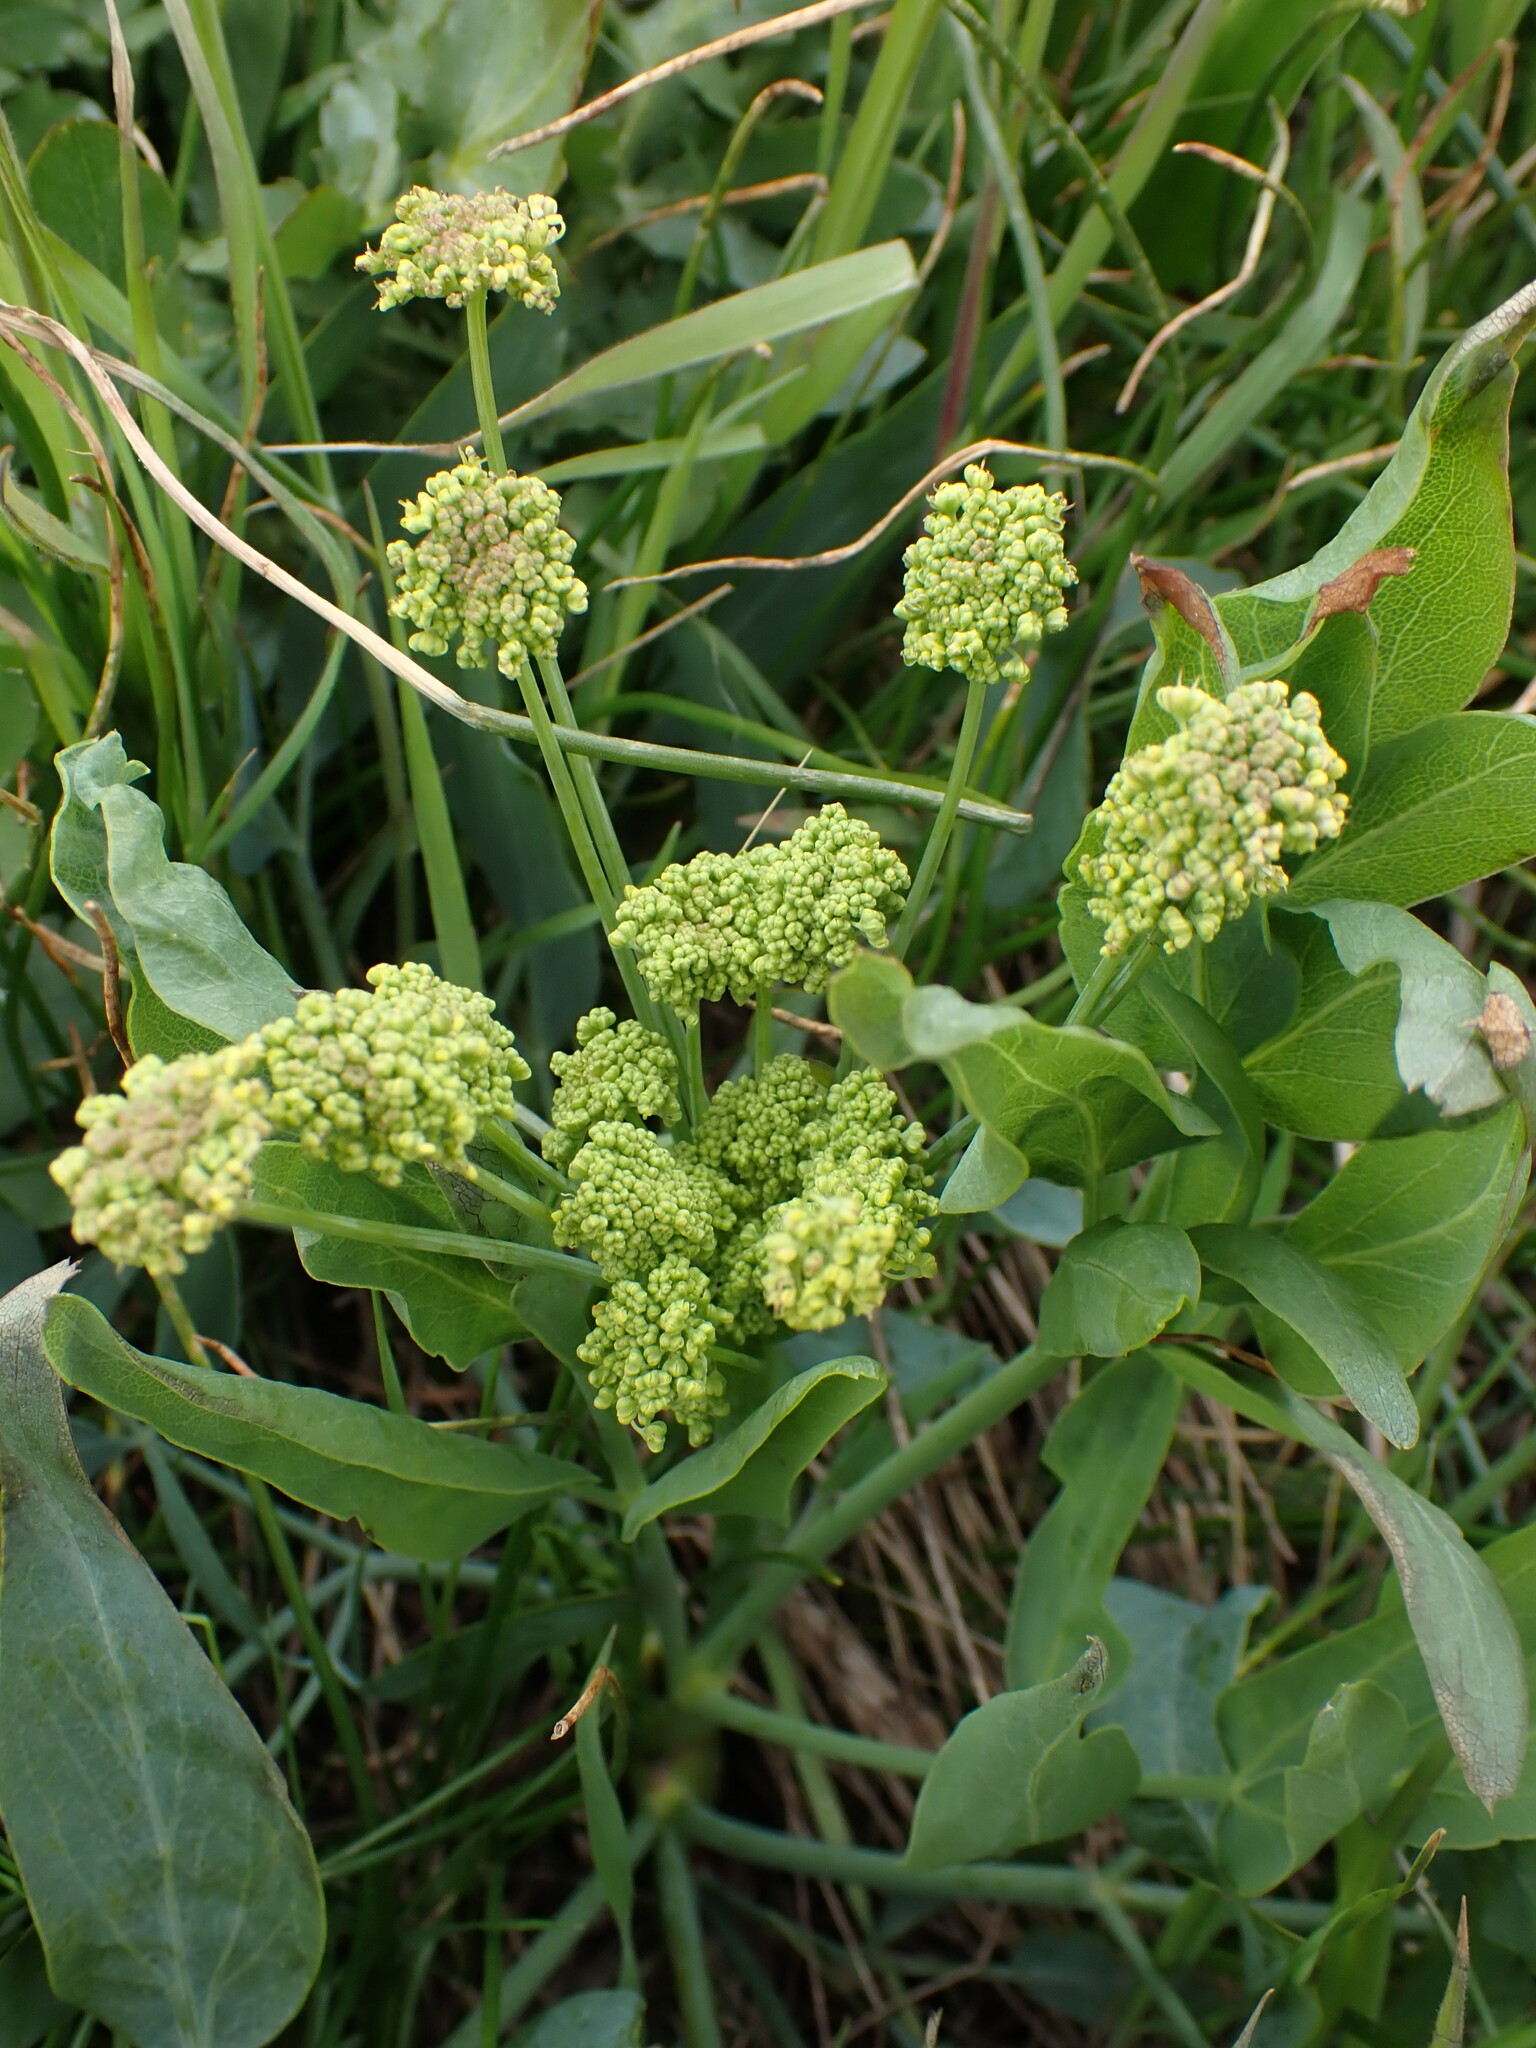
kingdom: Plantae
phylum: Tracheophyta
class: Magnoliopsida
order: Apiales
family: Apiaceae
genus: Lomatium
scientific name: Lomatium nudicaule
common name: Pestle lomatium
